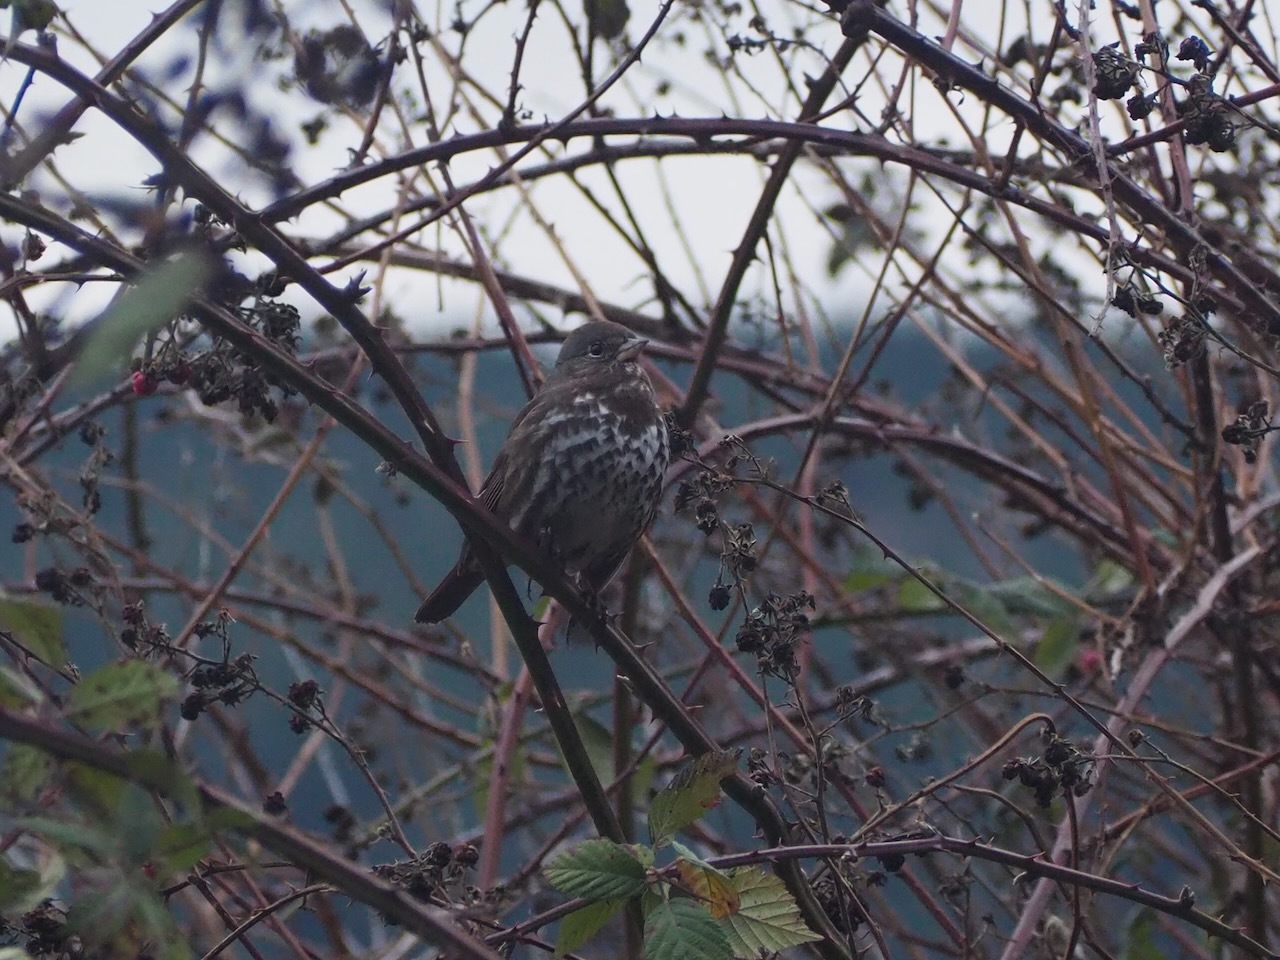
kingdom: Animalia
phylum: Chordata
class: Aves
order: Passeriformes
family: Passerellidae
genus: Passerella
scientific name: Passerella iliaca
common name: Fox sparrow
